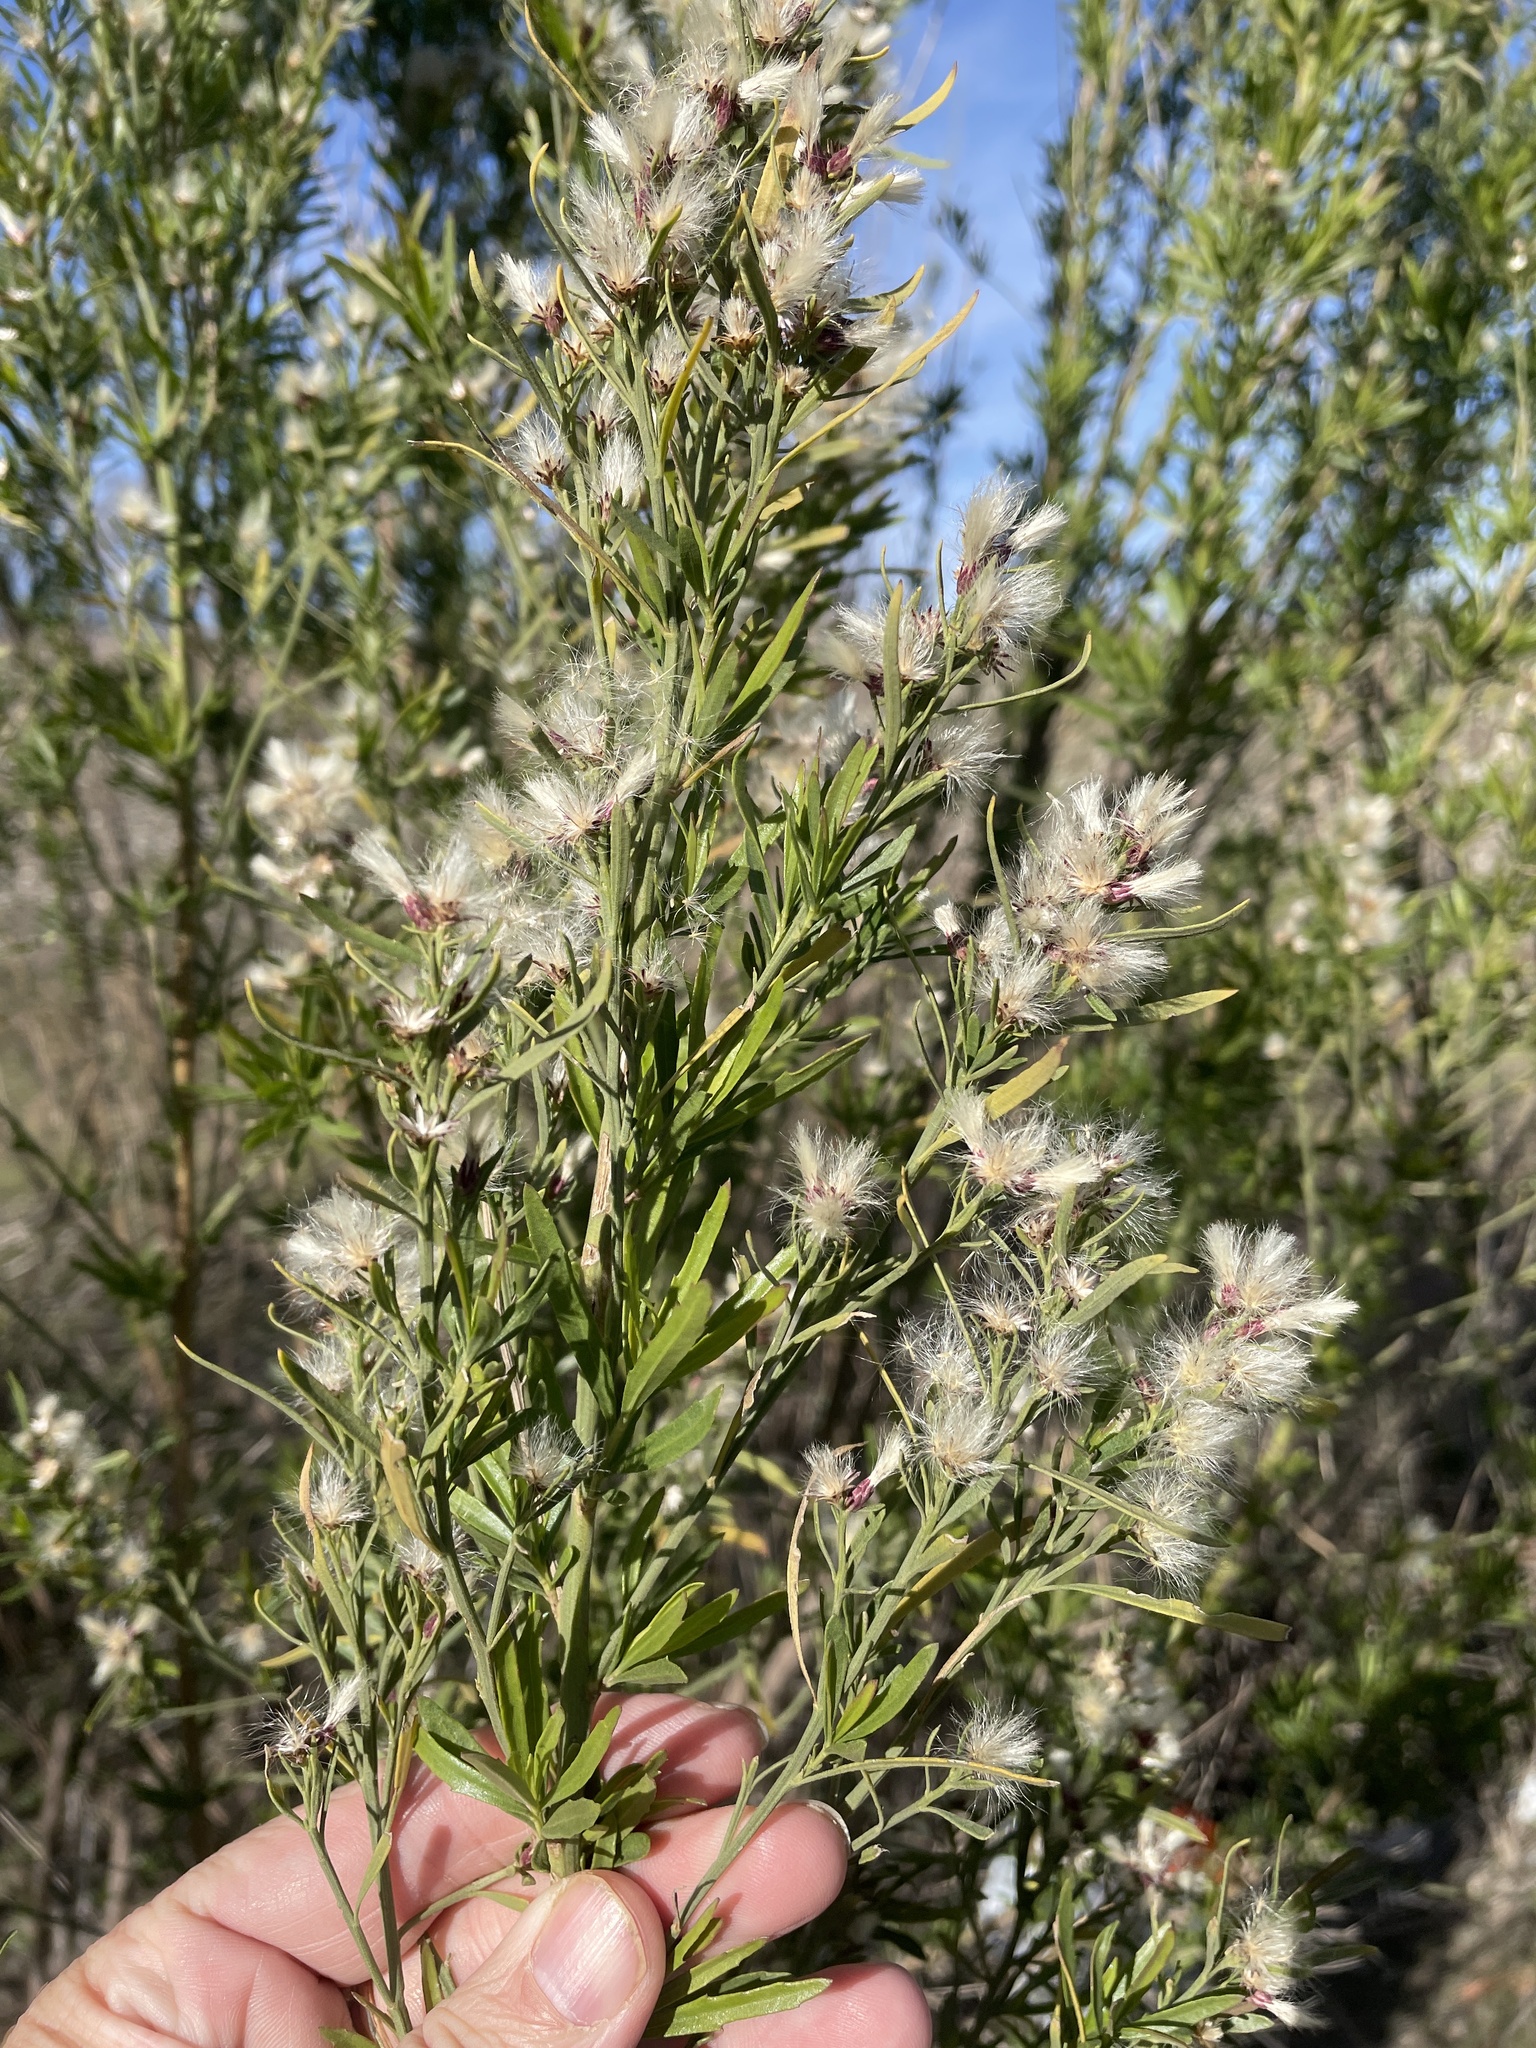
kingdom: Plantae
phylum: Tracheophyta
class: Magnoliopsida
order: Asterales
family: Asteraceae
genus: Baccharis
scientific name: Baccharis neglecta
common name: Roosevelt-weed
